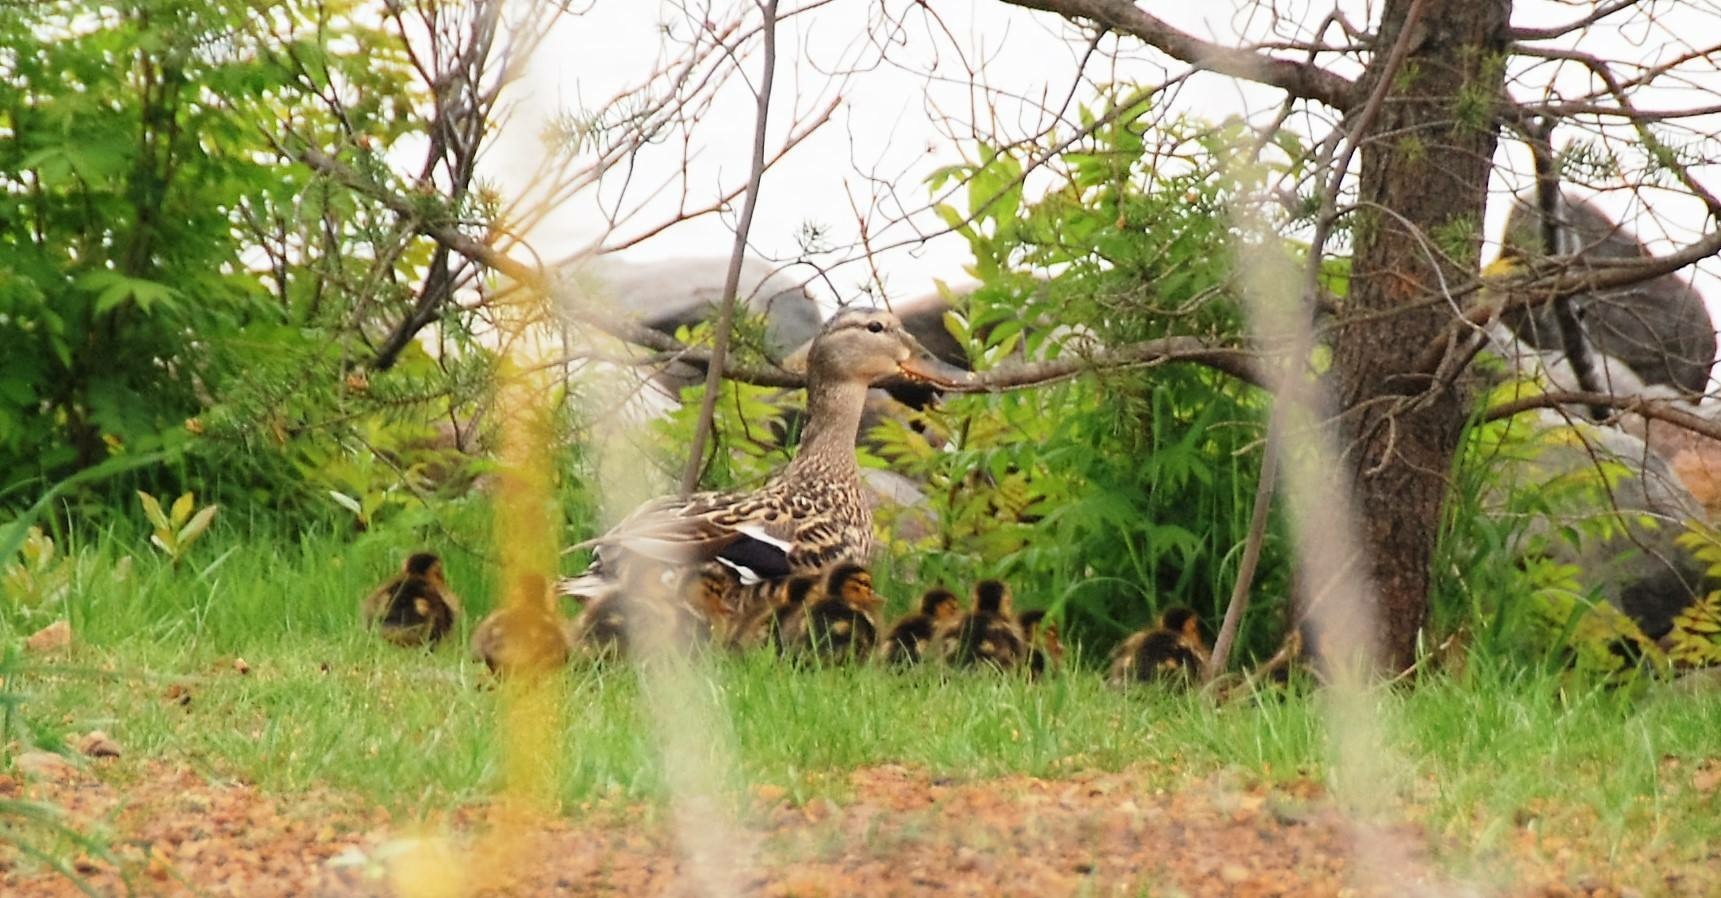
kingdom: Animalia
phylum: Chordata
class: Aves
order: Anseriformes
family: Anatidae
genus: Anas
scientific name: Anas platyrhynchos
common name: Mallard
